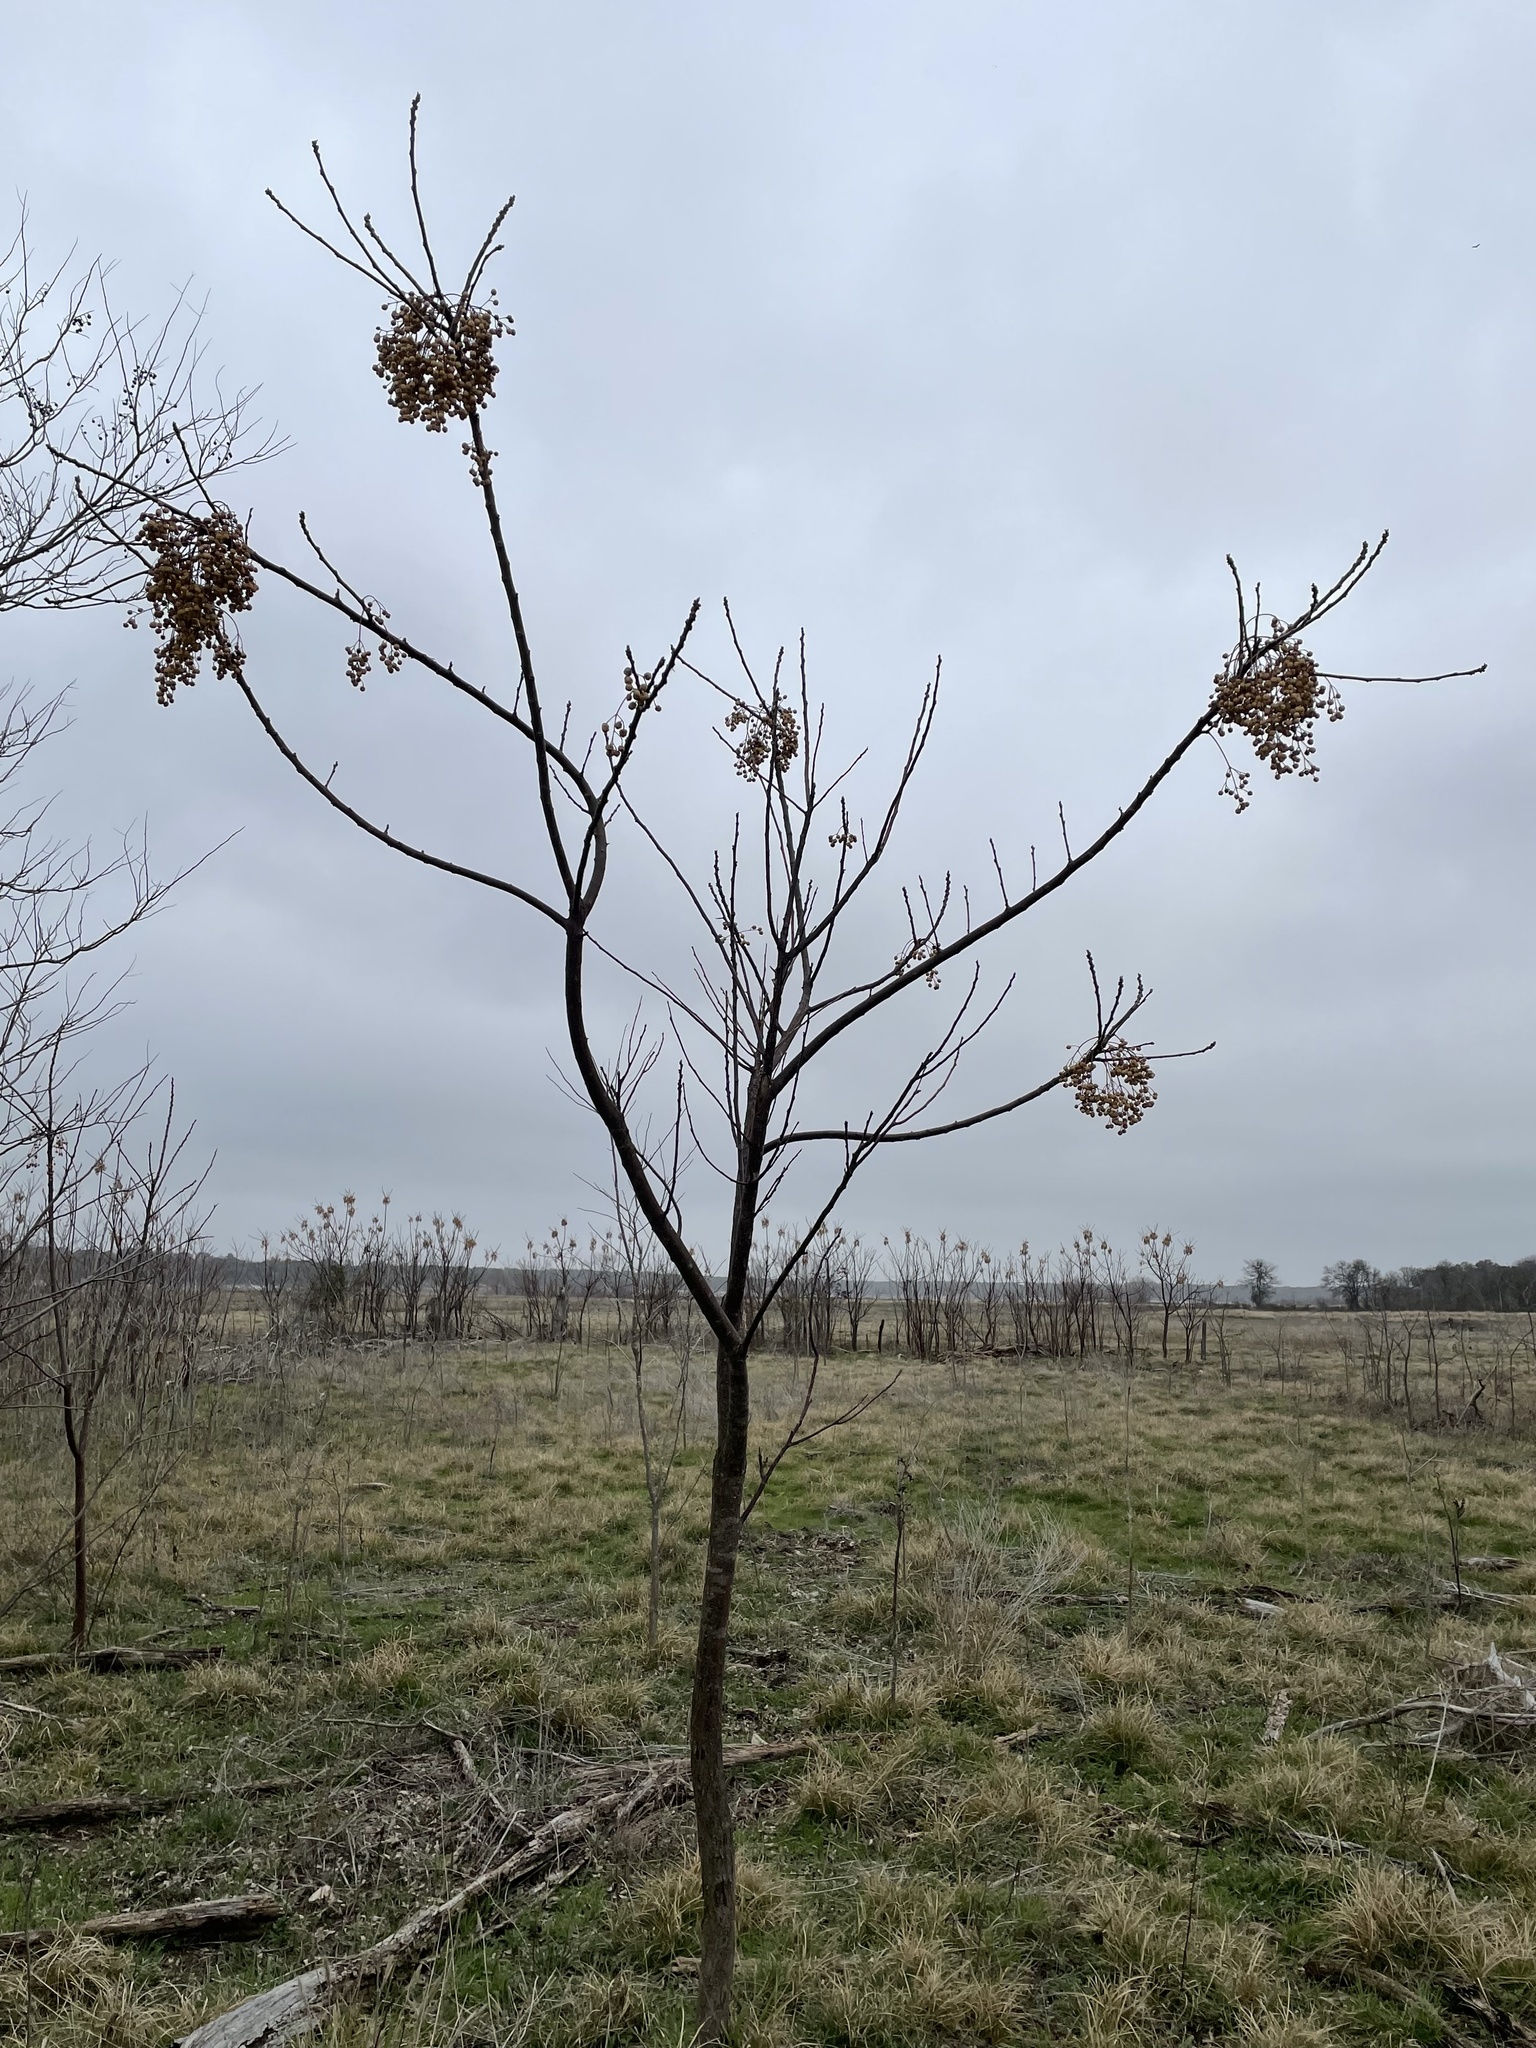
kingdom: Plantae
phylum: Tracheophyta
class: Magnoliopsida
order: Sapindales
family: Meliaceae
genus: Melia
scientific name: Melia azedarach
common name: Chinaberrytree
